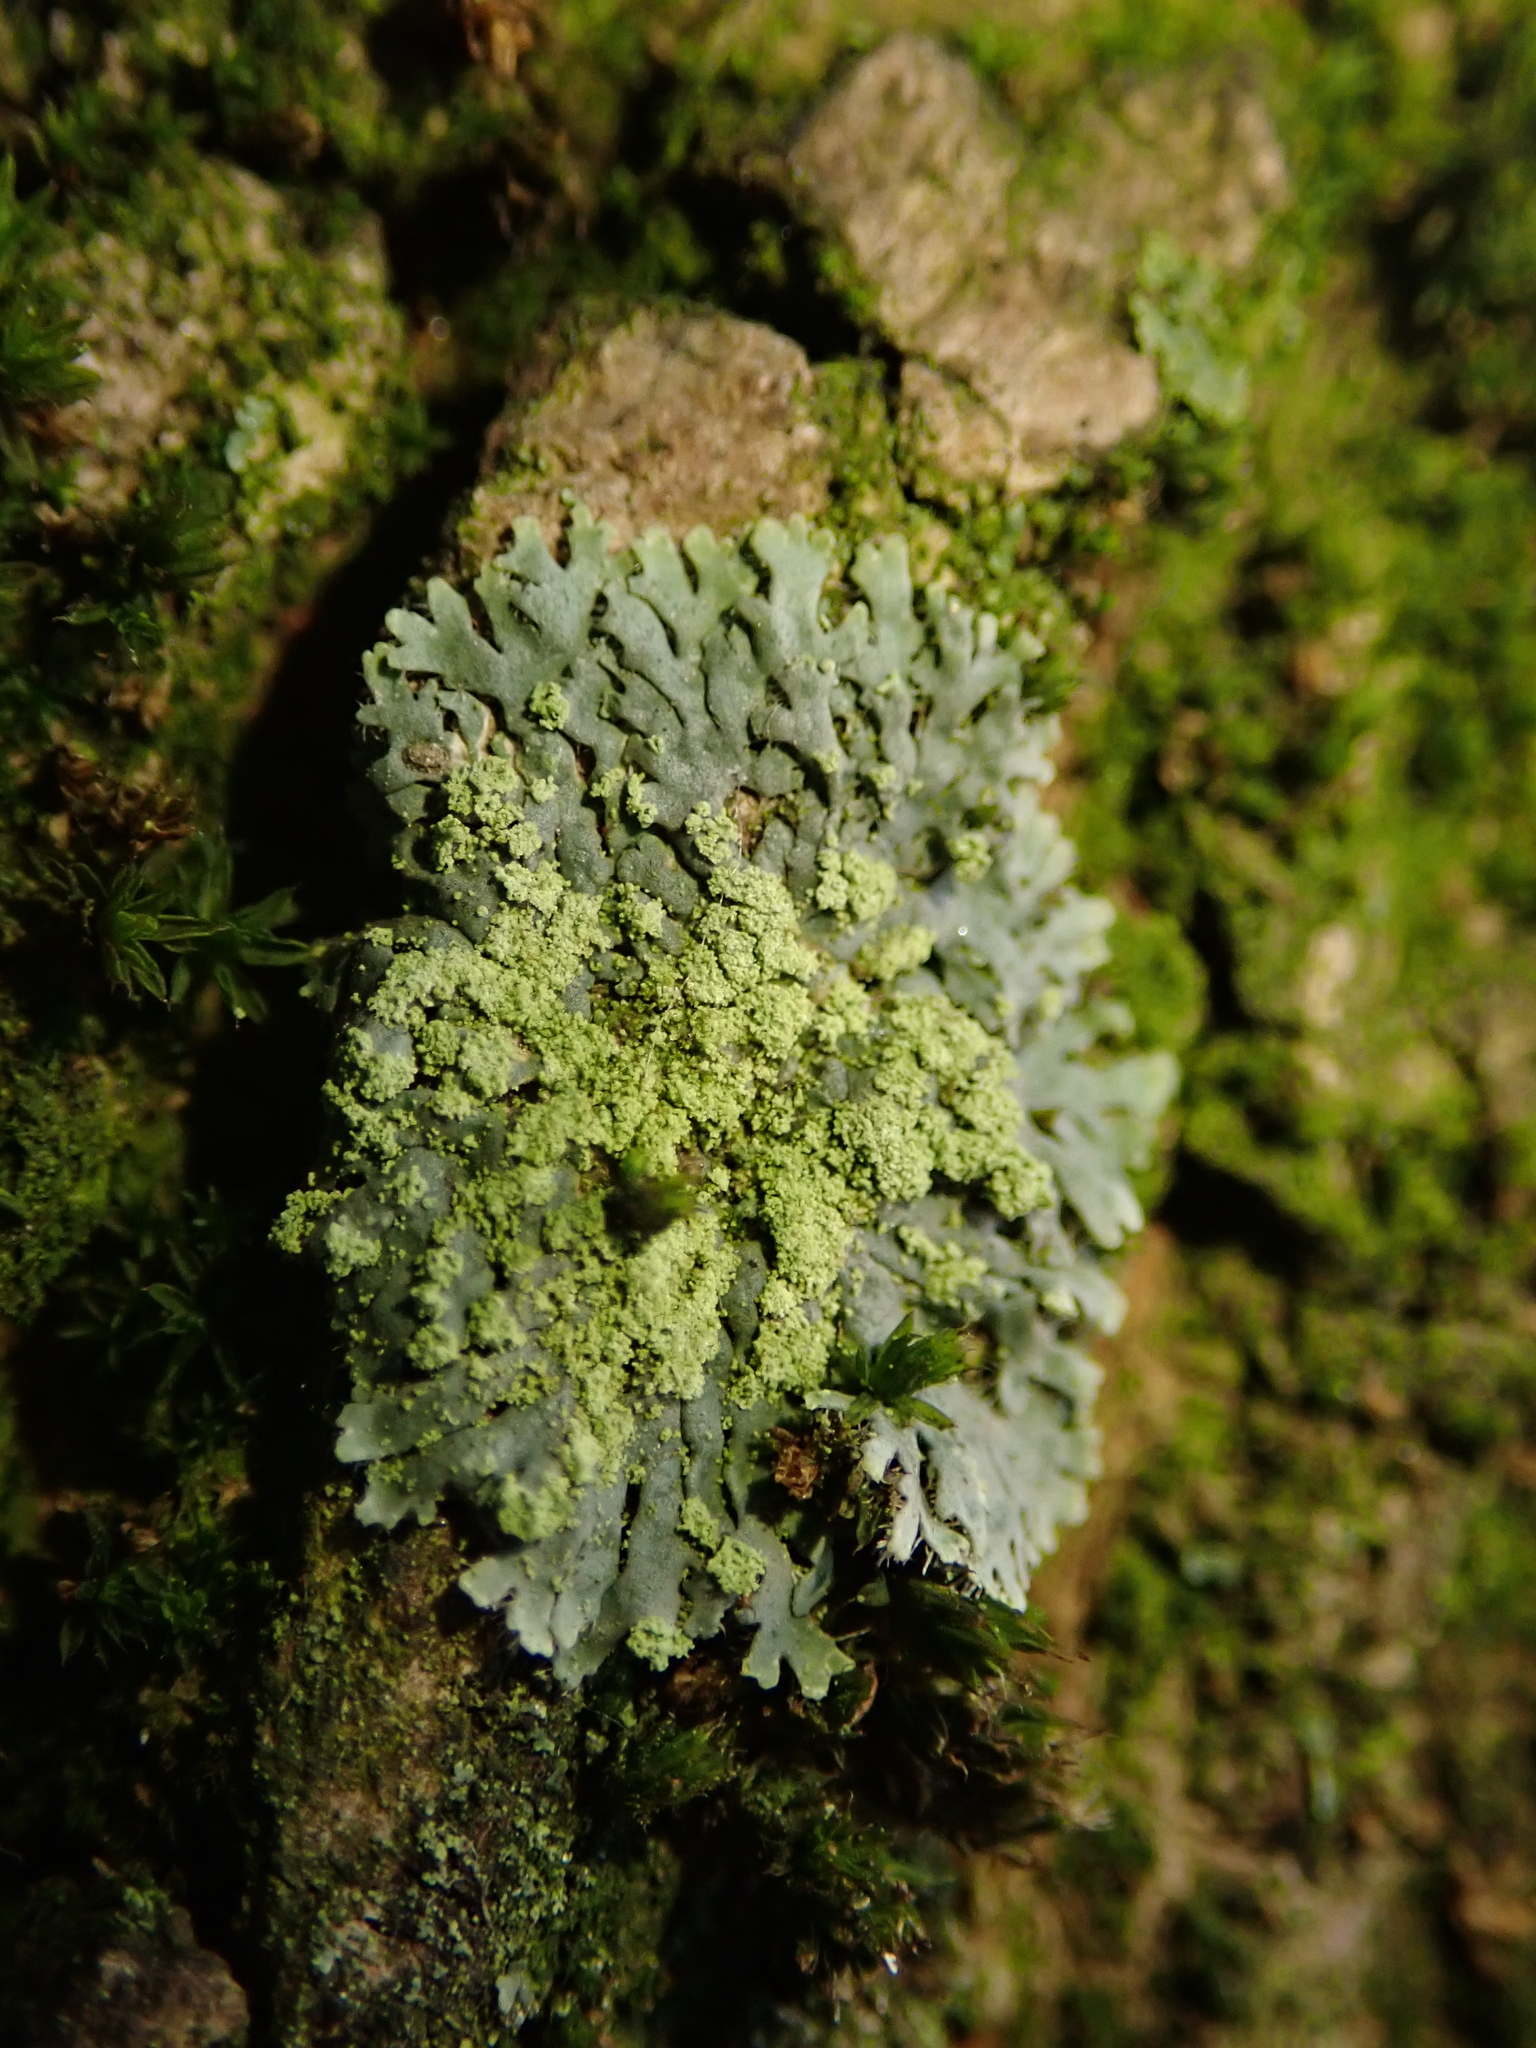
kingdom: Fungi
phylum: Ascomycota
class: Lecanoromycetes
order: Caliciales
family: Physciaceae
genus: Phaeophyscia
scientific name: Phaeophyscia orbicularis
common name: Mealy shadow lichen
